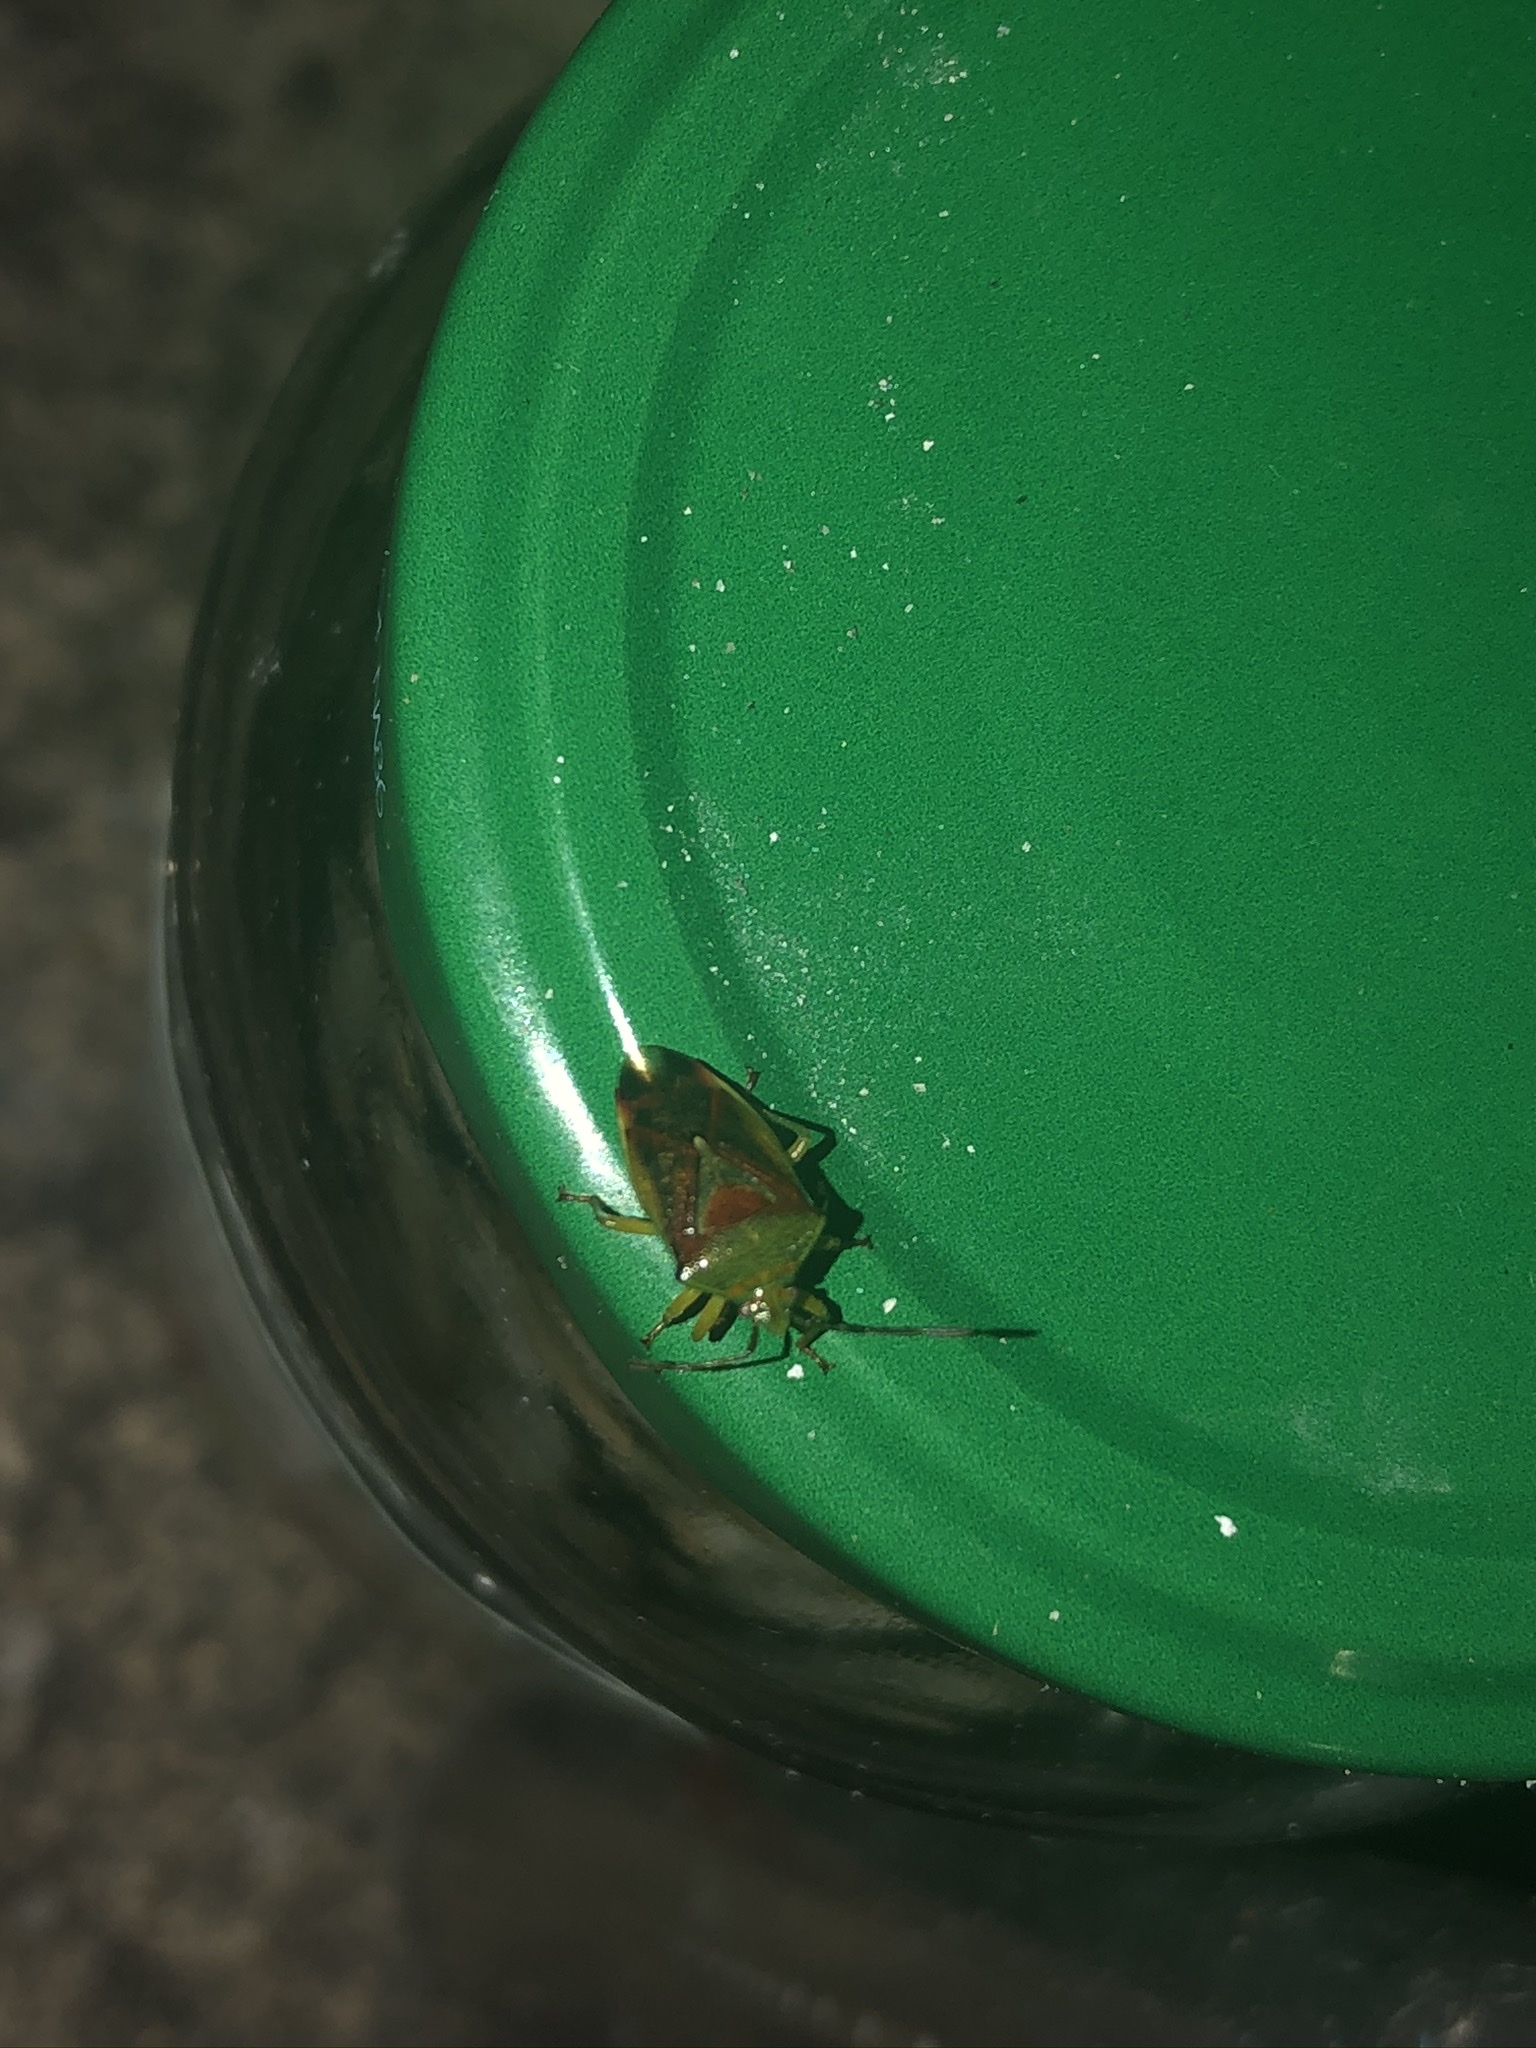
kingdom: Animalia
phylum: Arthropoda
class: Insecta
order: Hemiptera
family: Acanthosomatidae
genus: Elasmostethus
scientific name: Elasmostethus interstinctus
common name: Birch shieldbug
